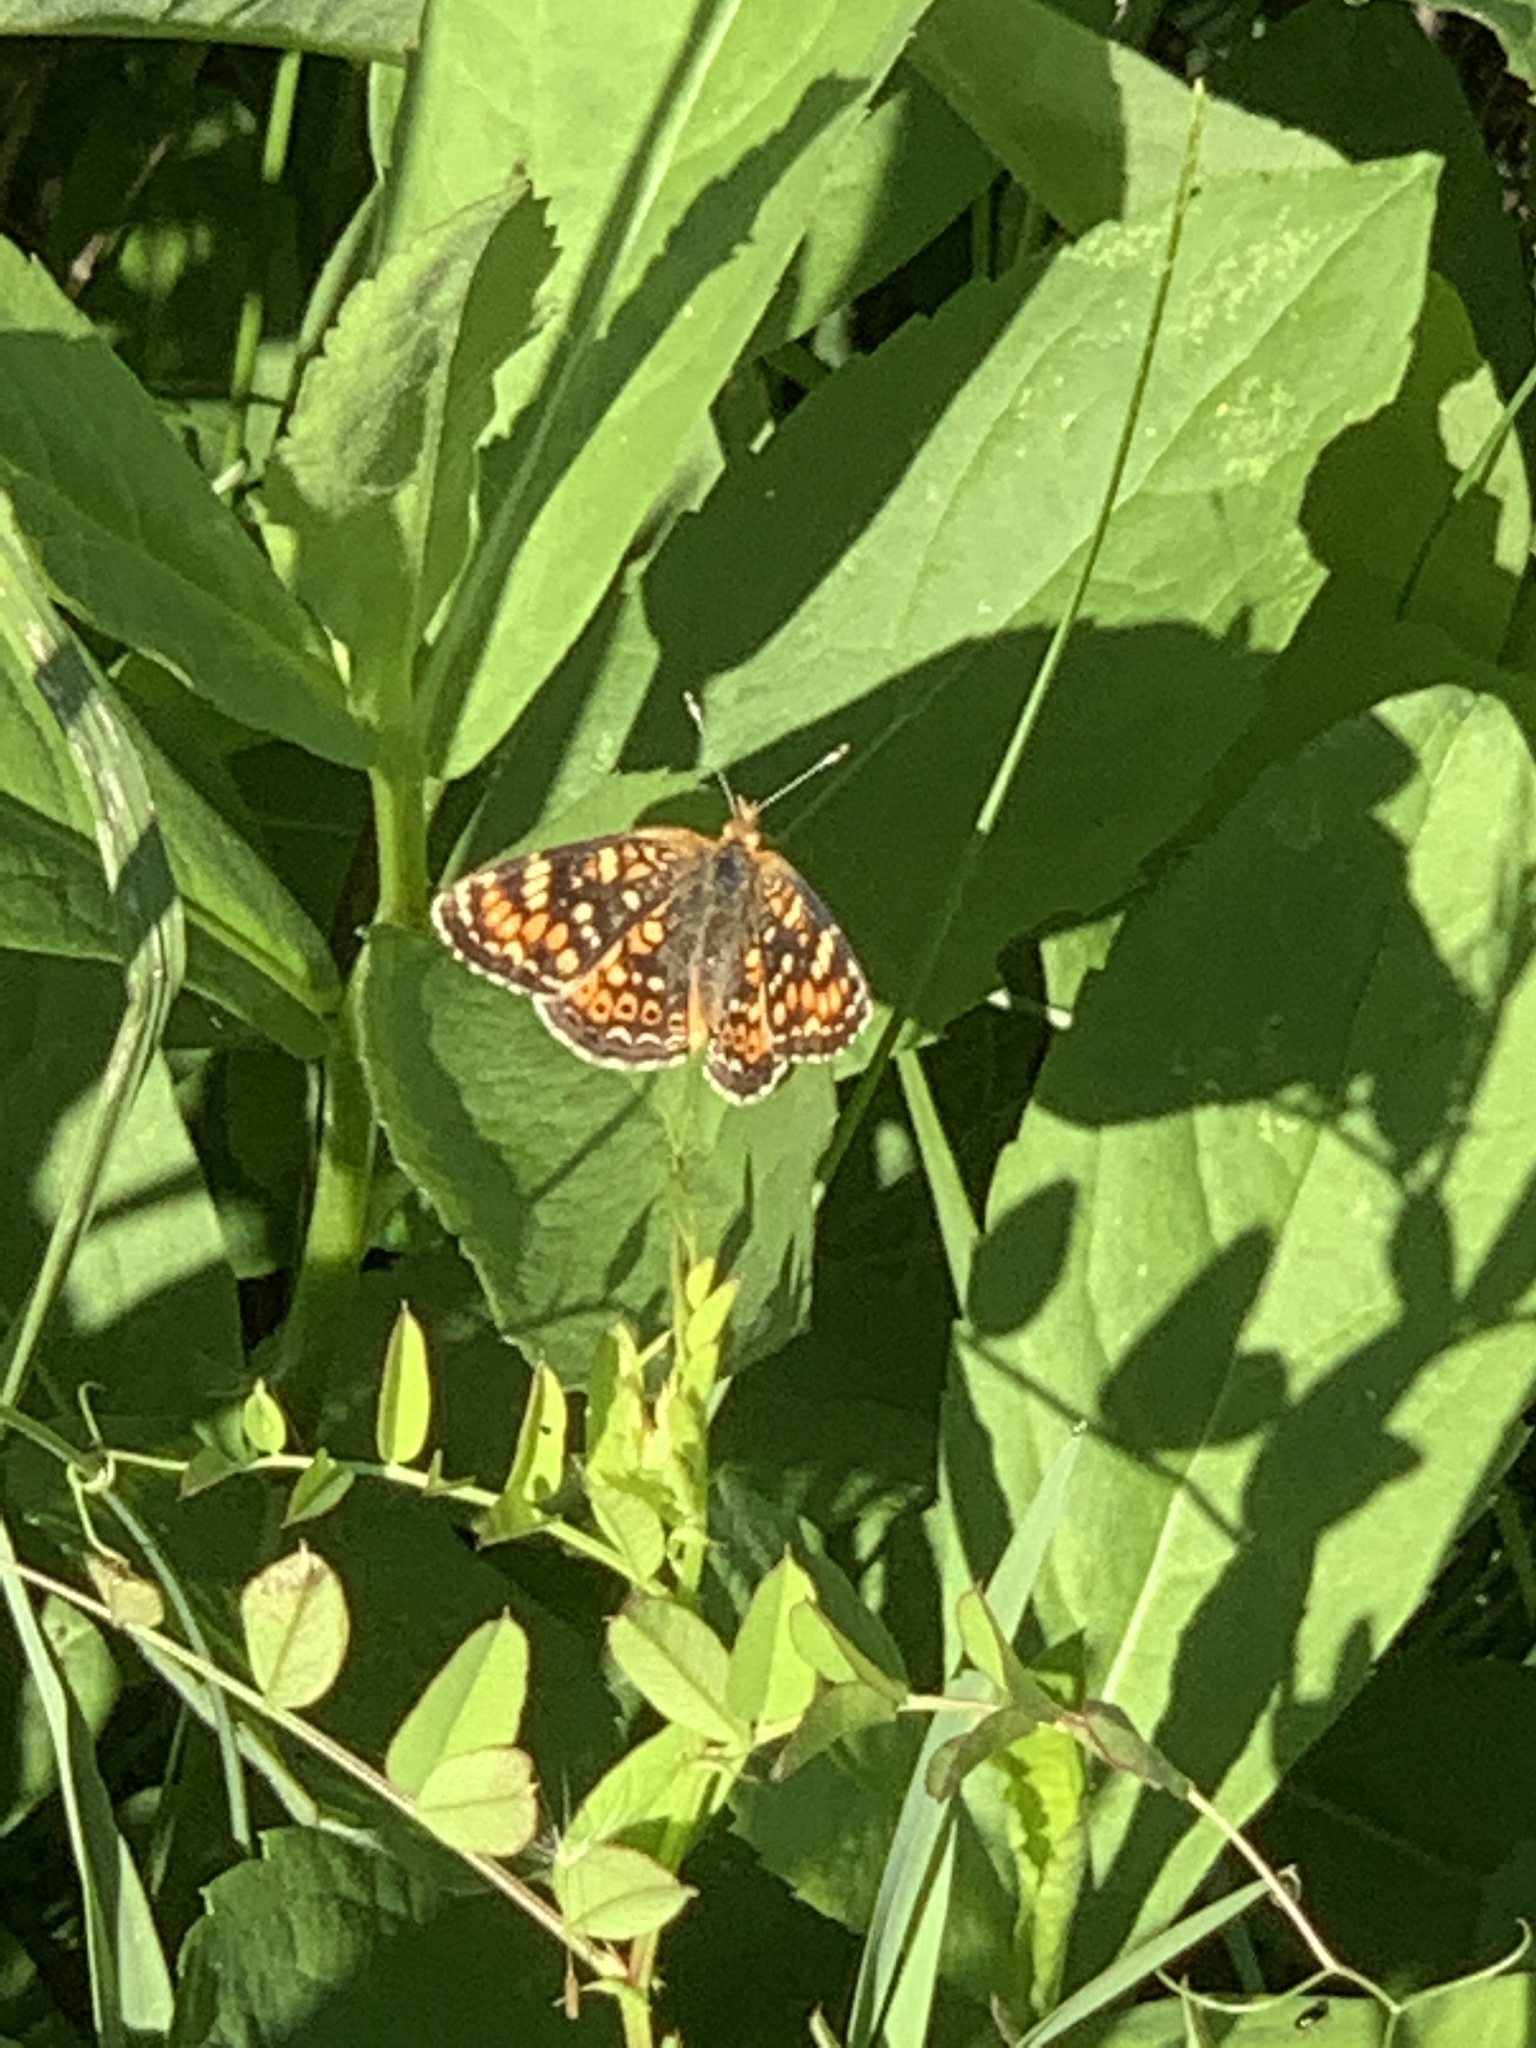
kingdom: Animalia
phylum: Arthropoda
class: Insecta
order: Lepidoptera
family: Nymphalidae
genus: Phyciodes
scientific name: Phyciodes tharos
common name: Pearl crescent
